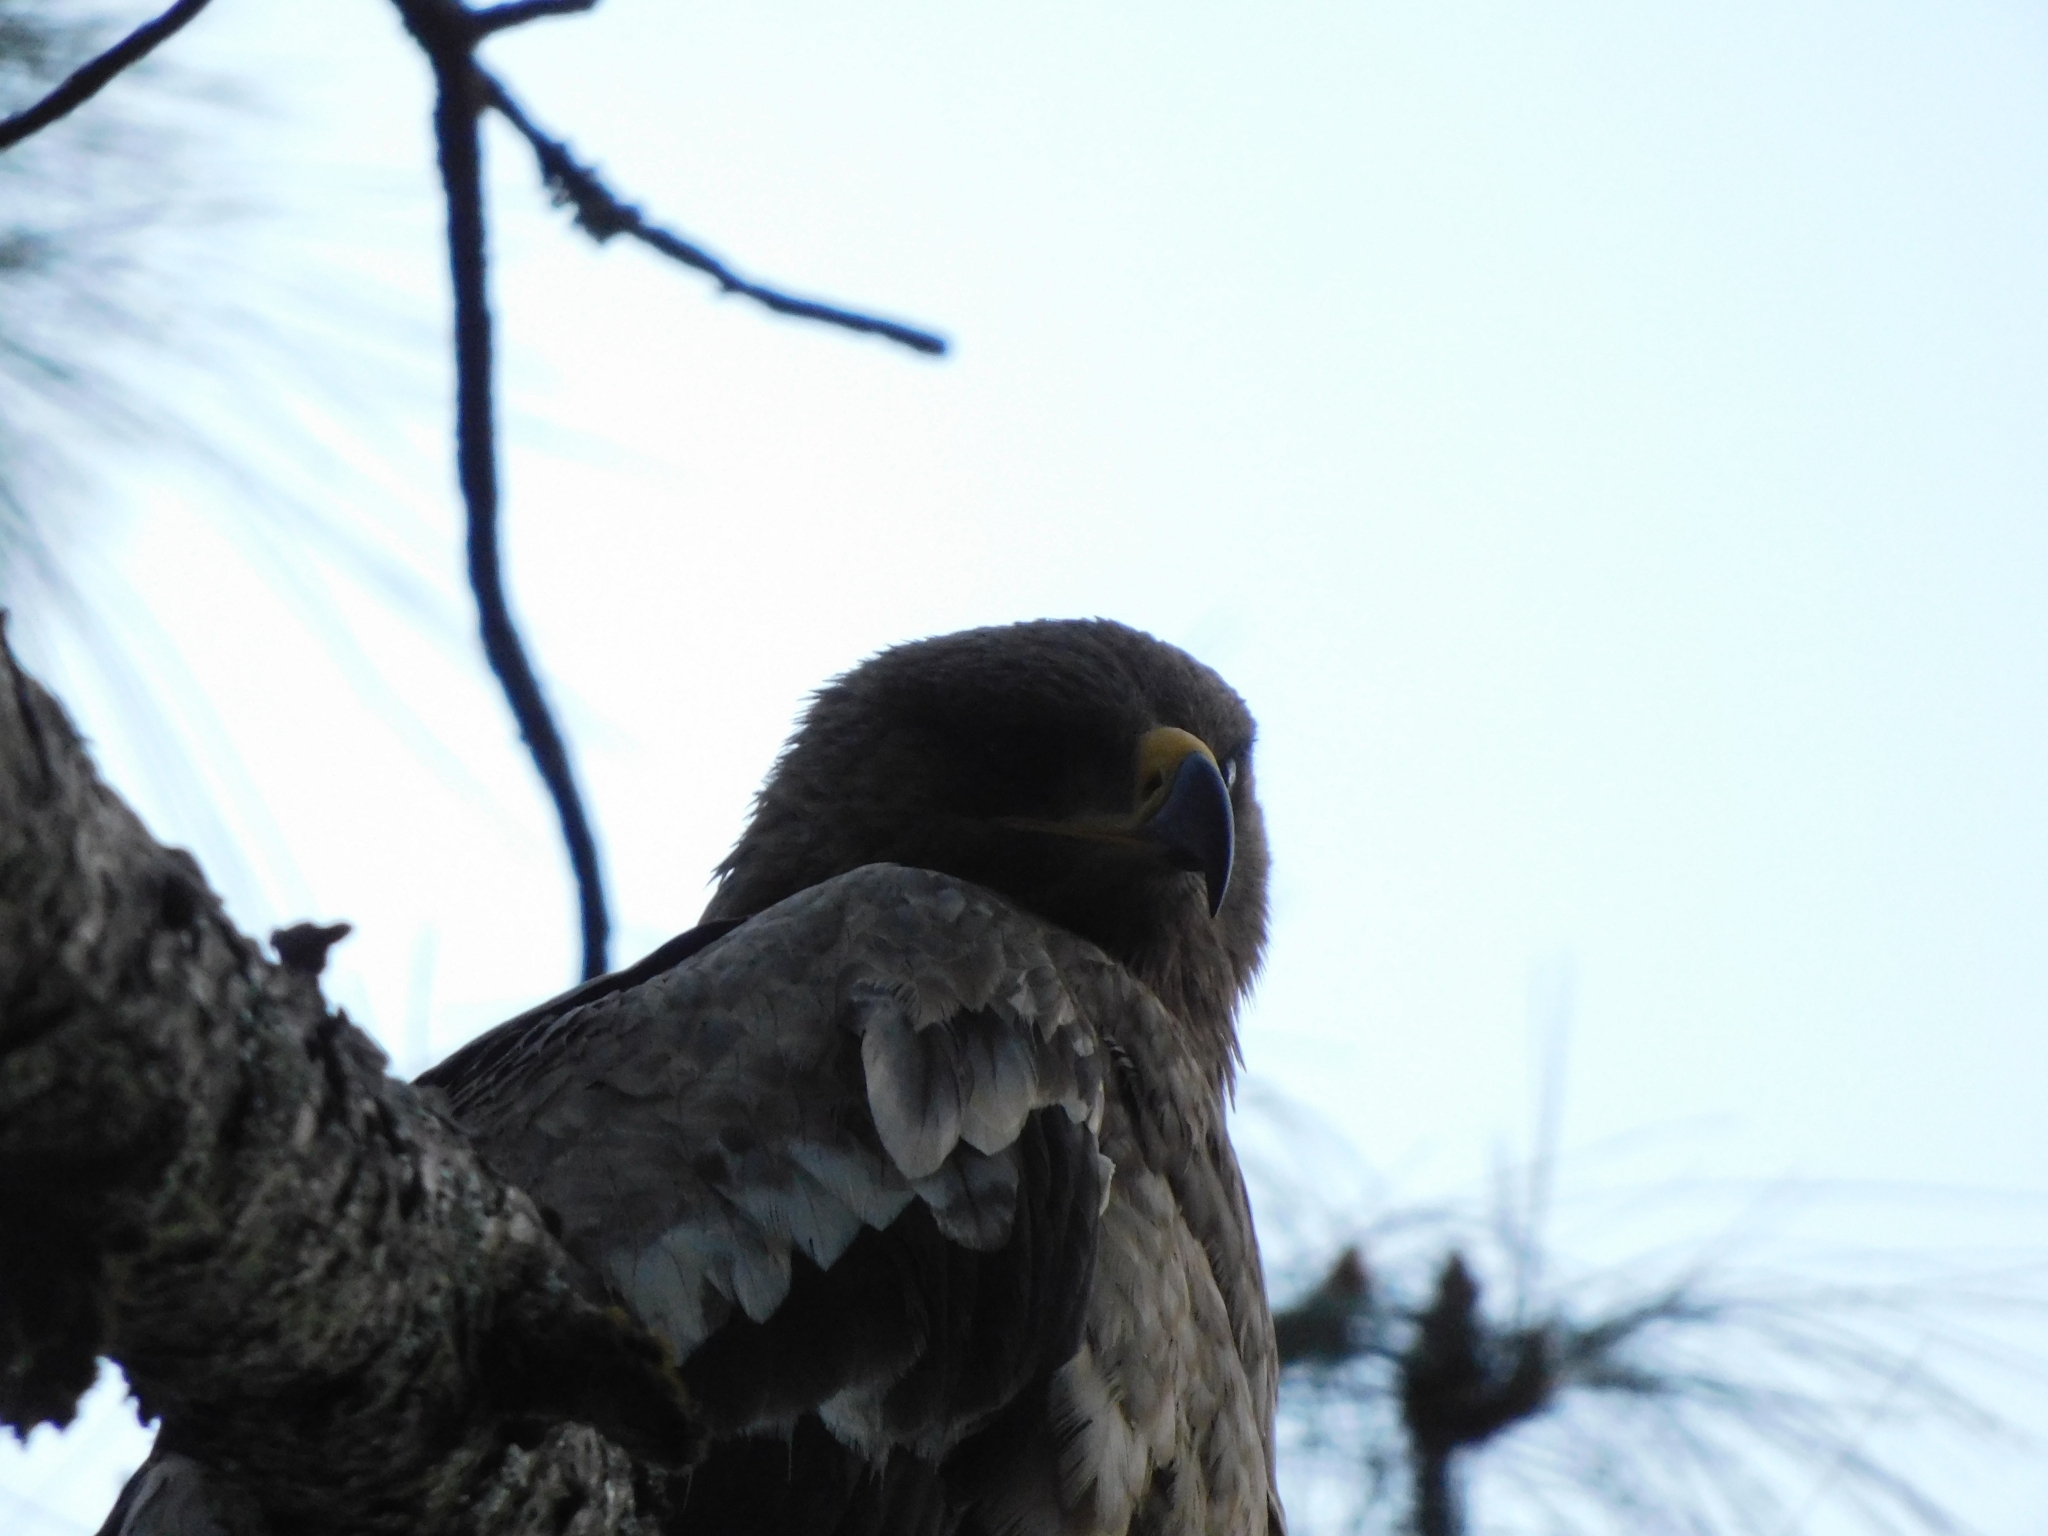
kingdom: Animalia
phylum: Chordata
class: Aves
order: Accipitriformes
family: Accipitridae
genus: Aquila
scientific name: Aquila nipalensis
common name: Steppe eagle
